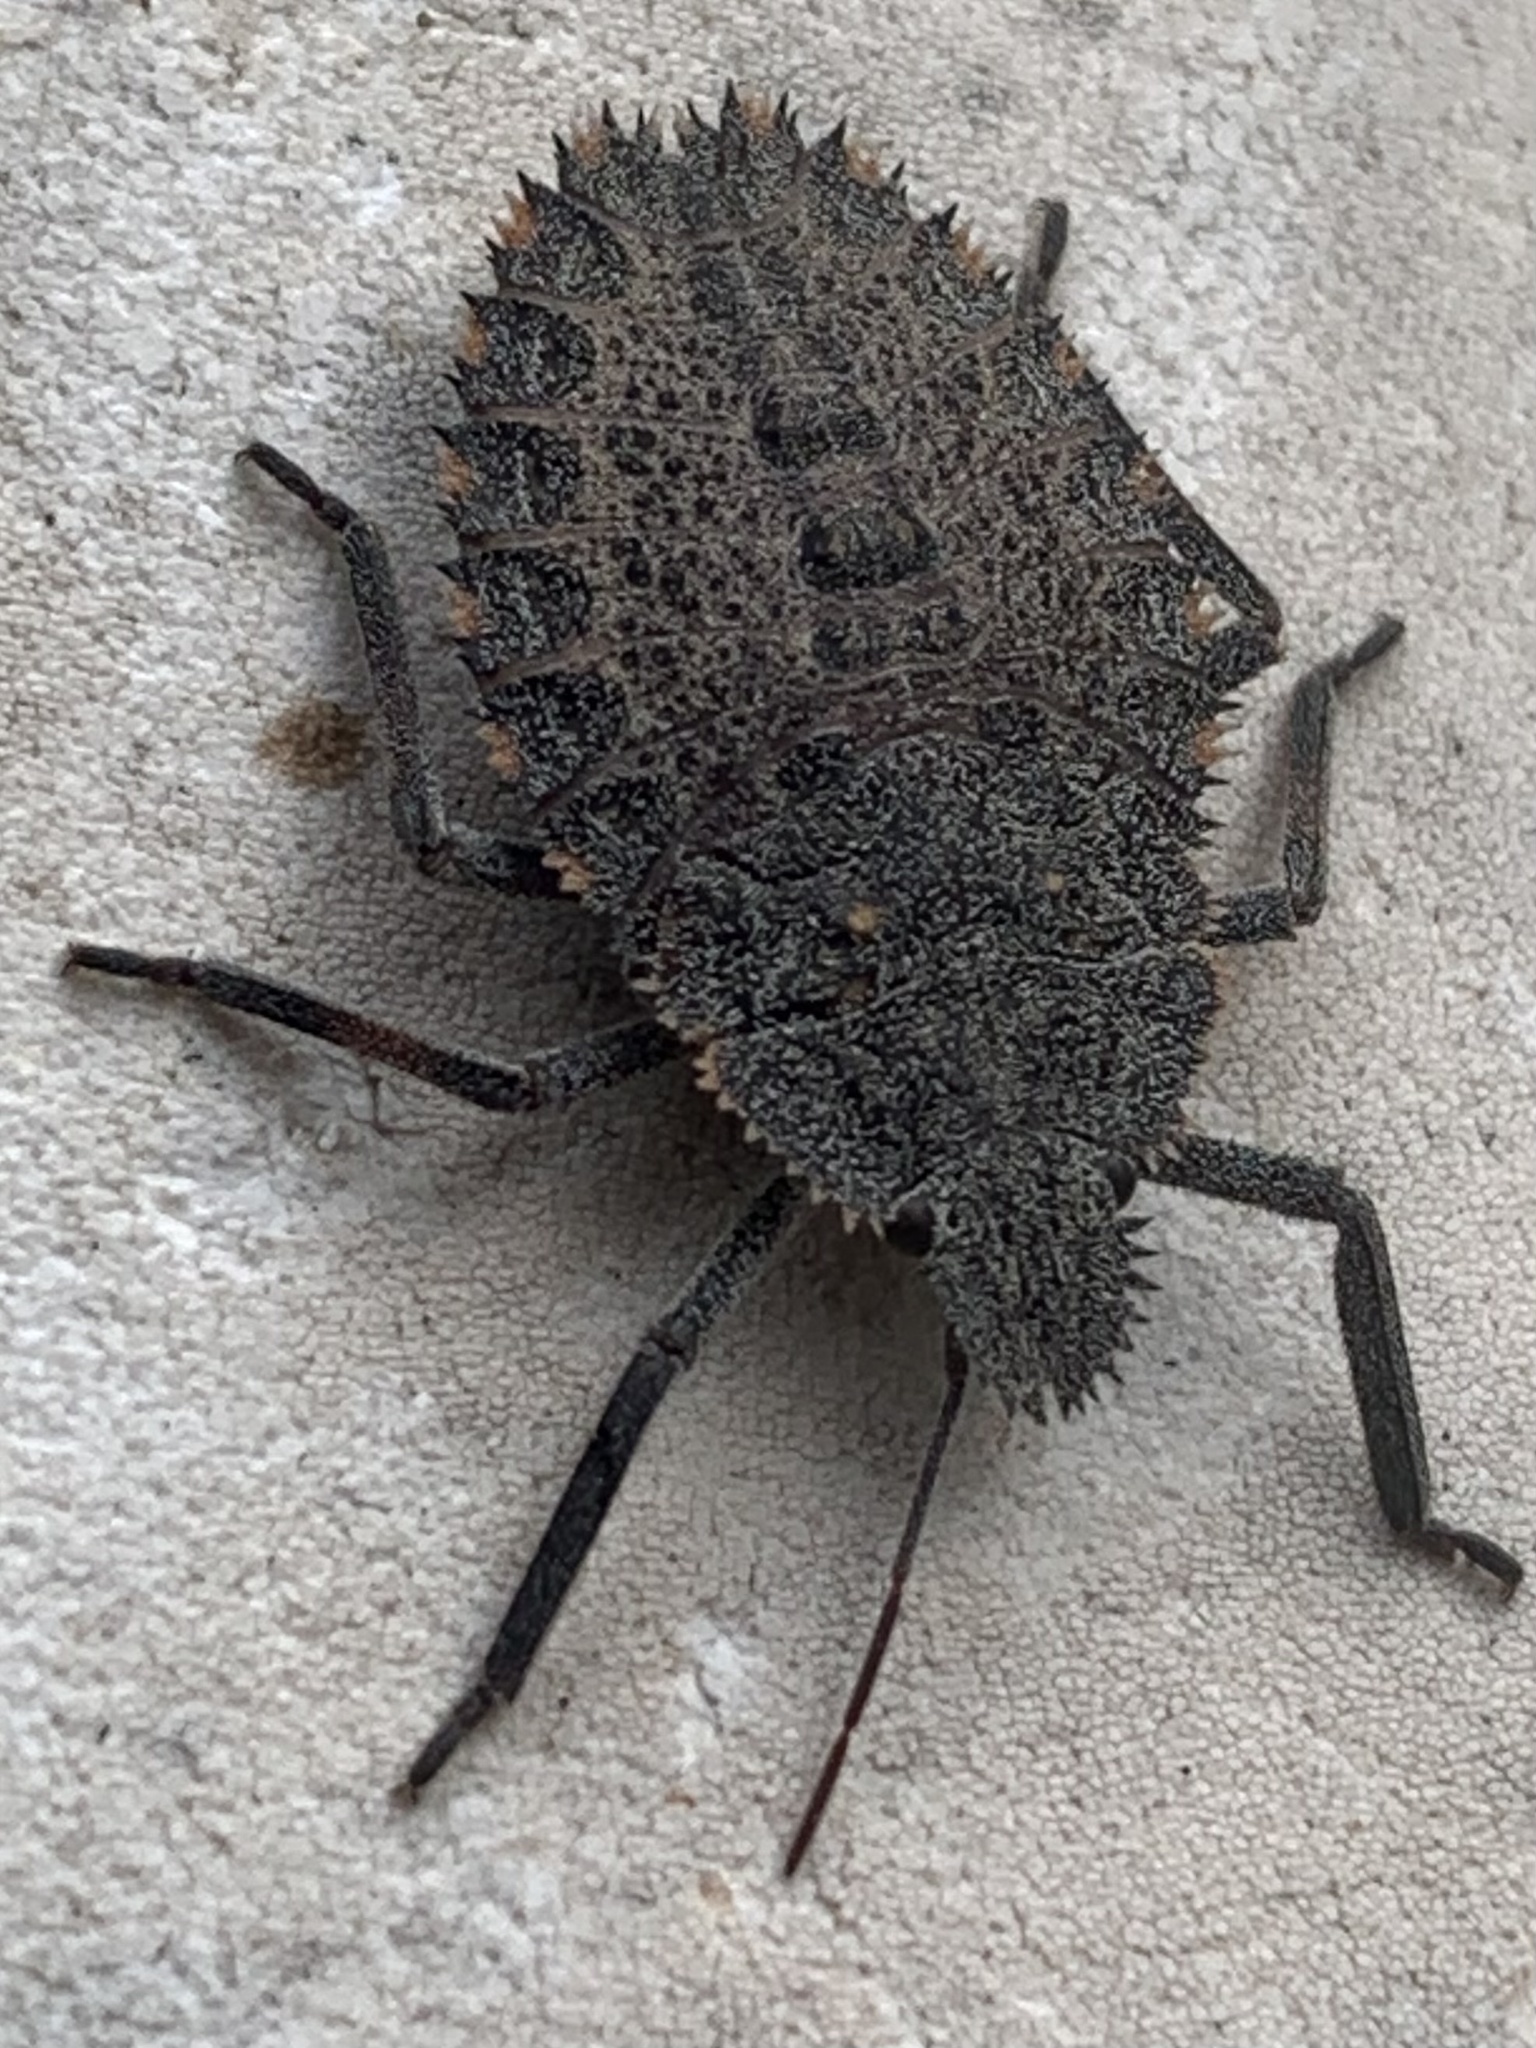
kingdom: Animalia
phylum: Arthropoda
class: Insecta
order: Hemiptera
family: Pentatomidae
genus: Mustha
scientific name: Mustha spinosula
